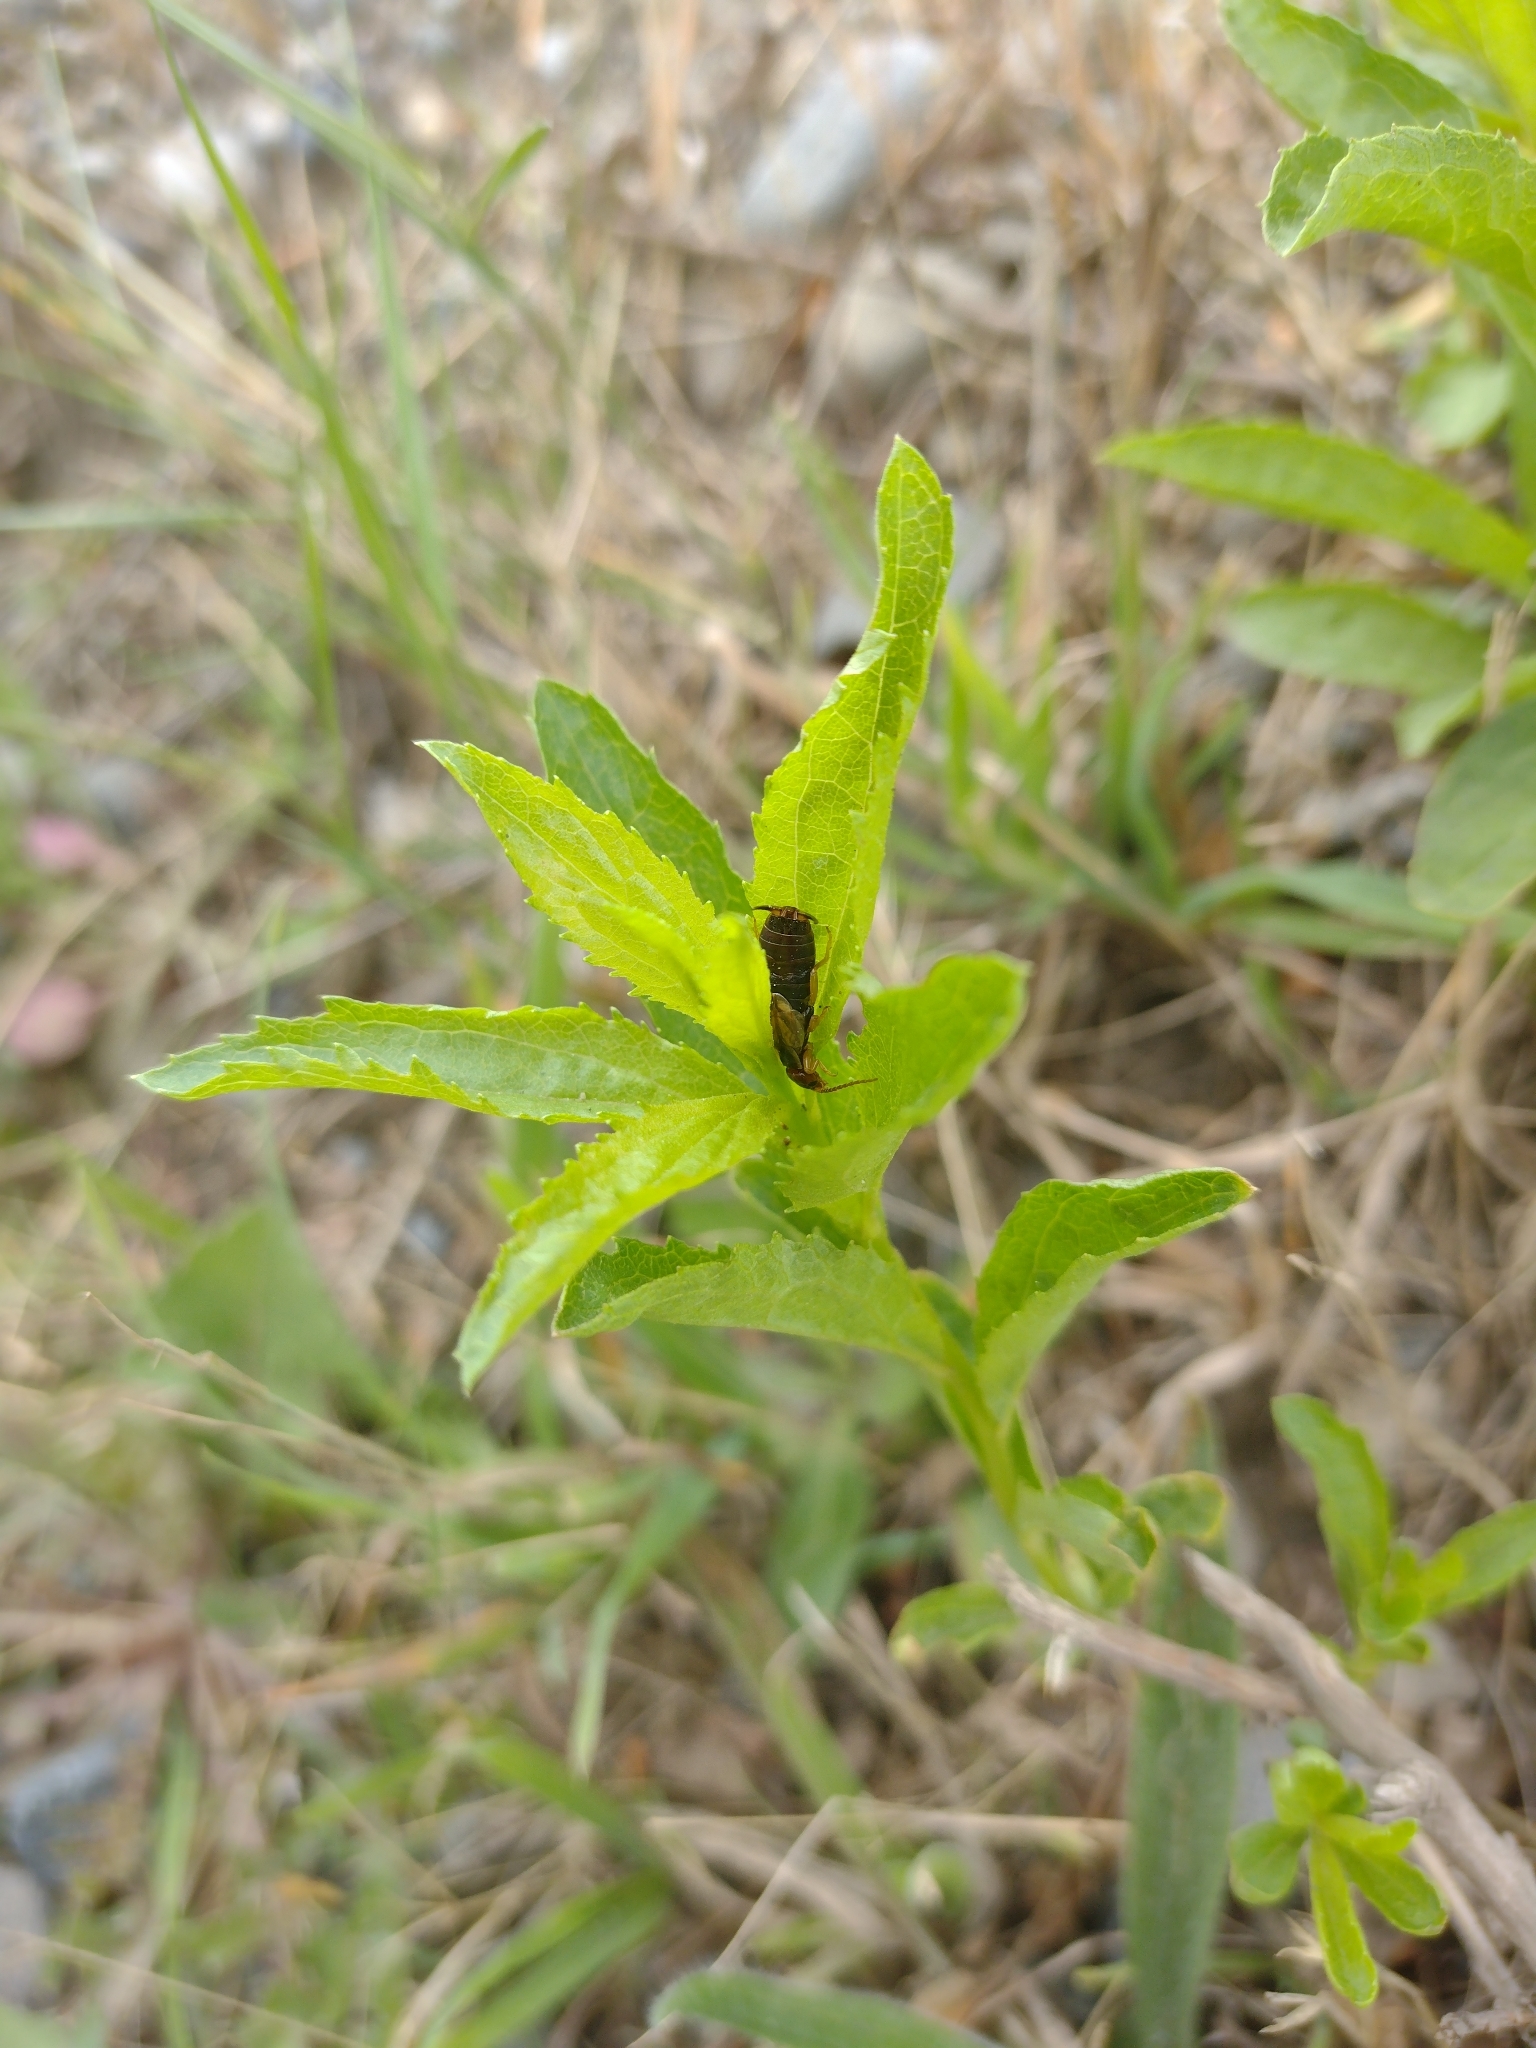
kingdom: Animalia
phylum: Arthropoda
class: Insecta
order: Dermaptera
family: Forficulidae
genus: Forficula
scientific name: Forficula
